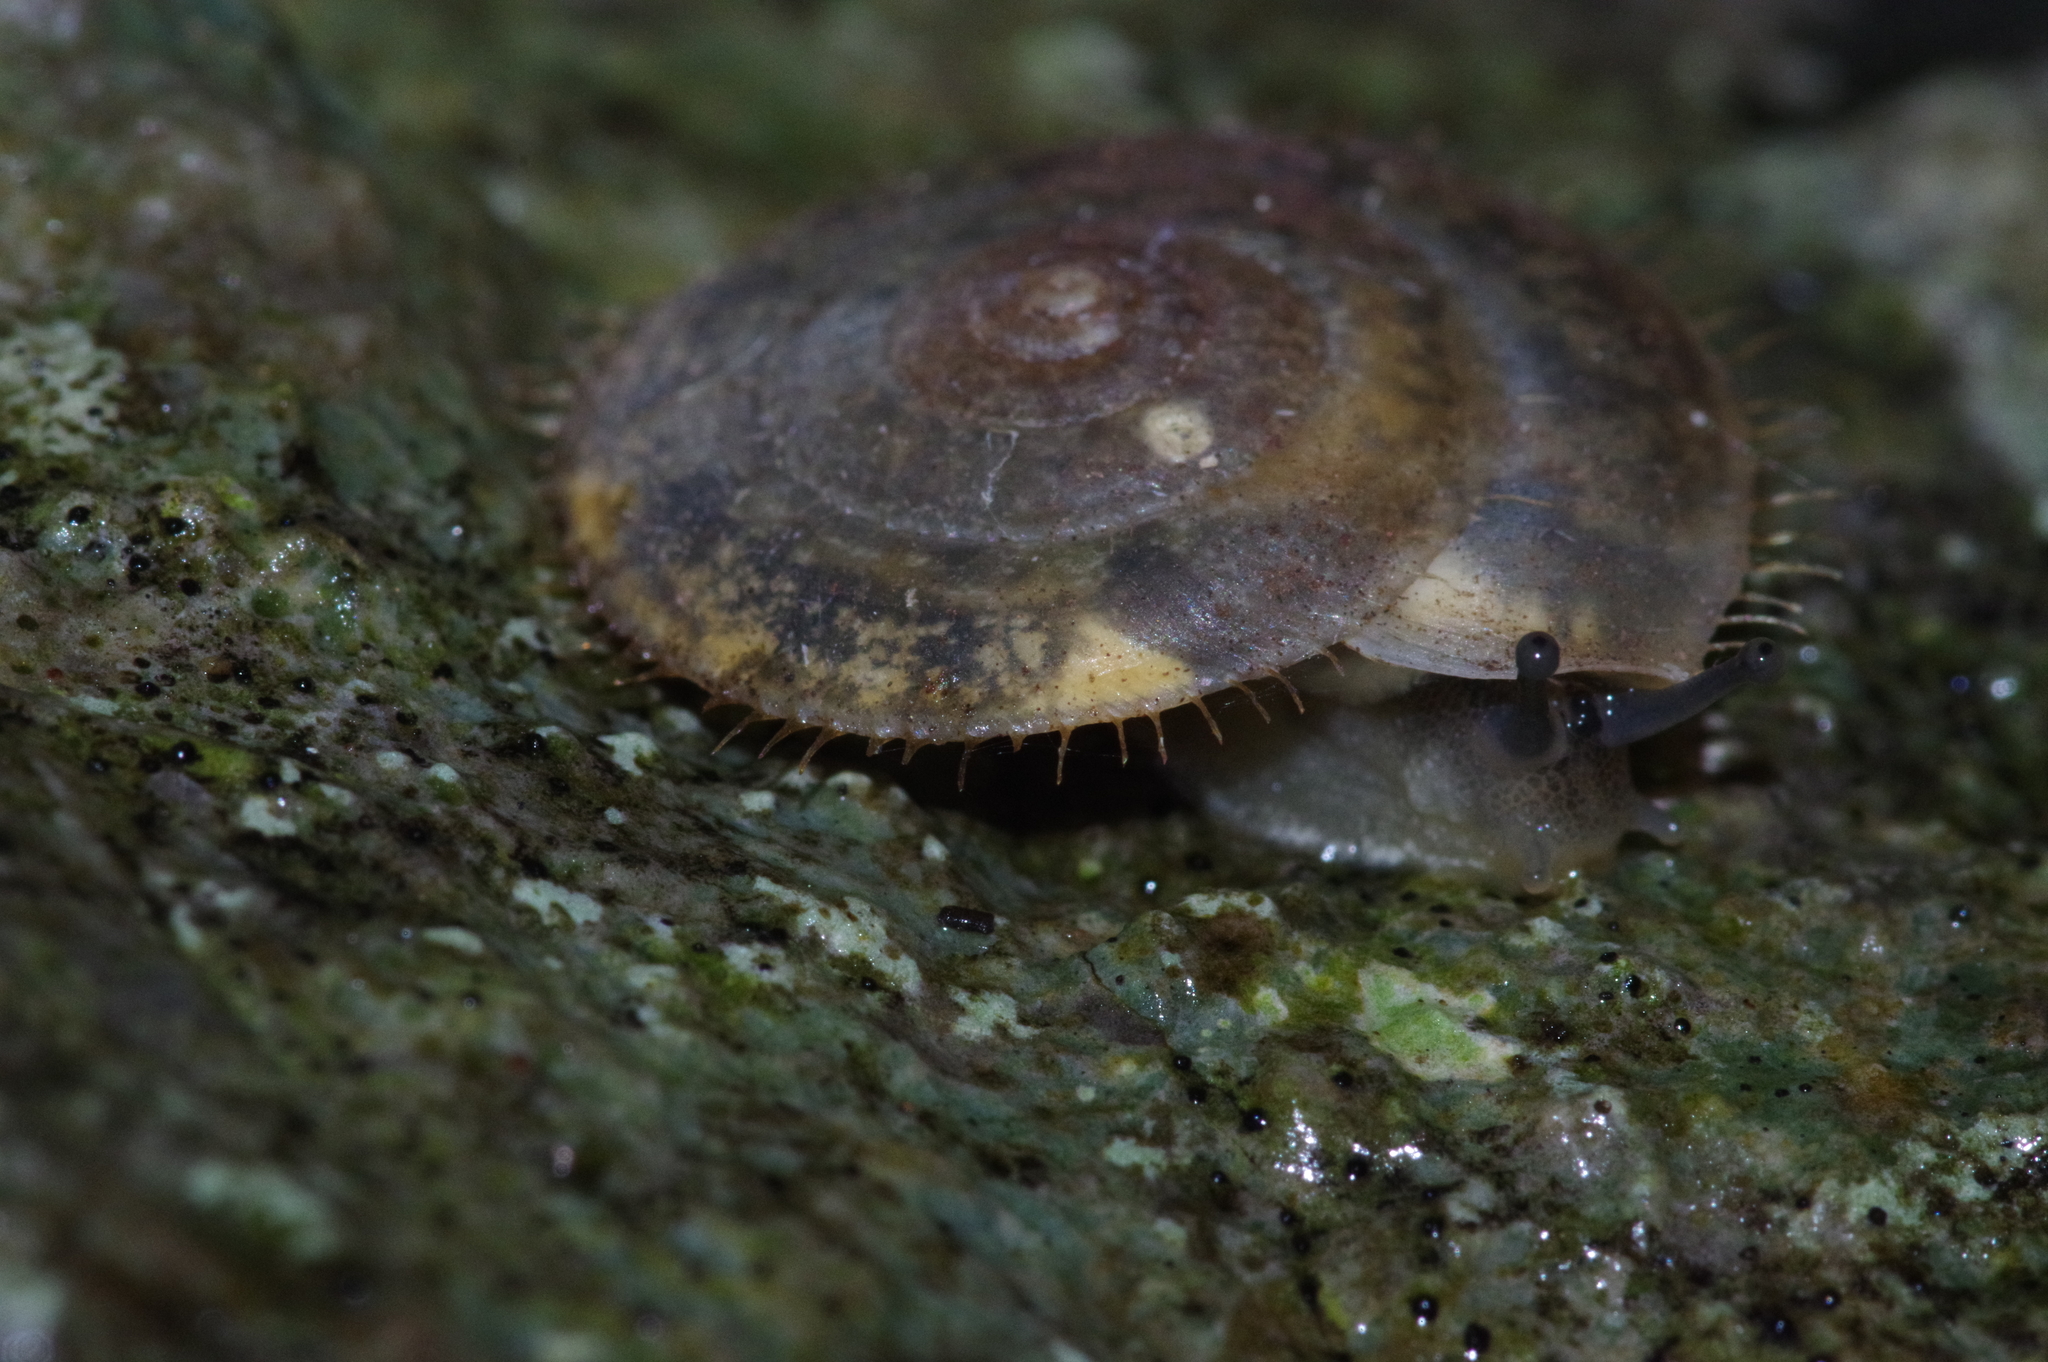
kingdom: Animalia
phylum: Mollusca
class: Gastropoda
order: Stylommatophora
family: Camaenidae
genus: Plectotropis
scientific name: Plectotropis elegantissima
